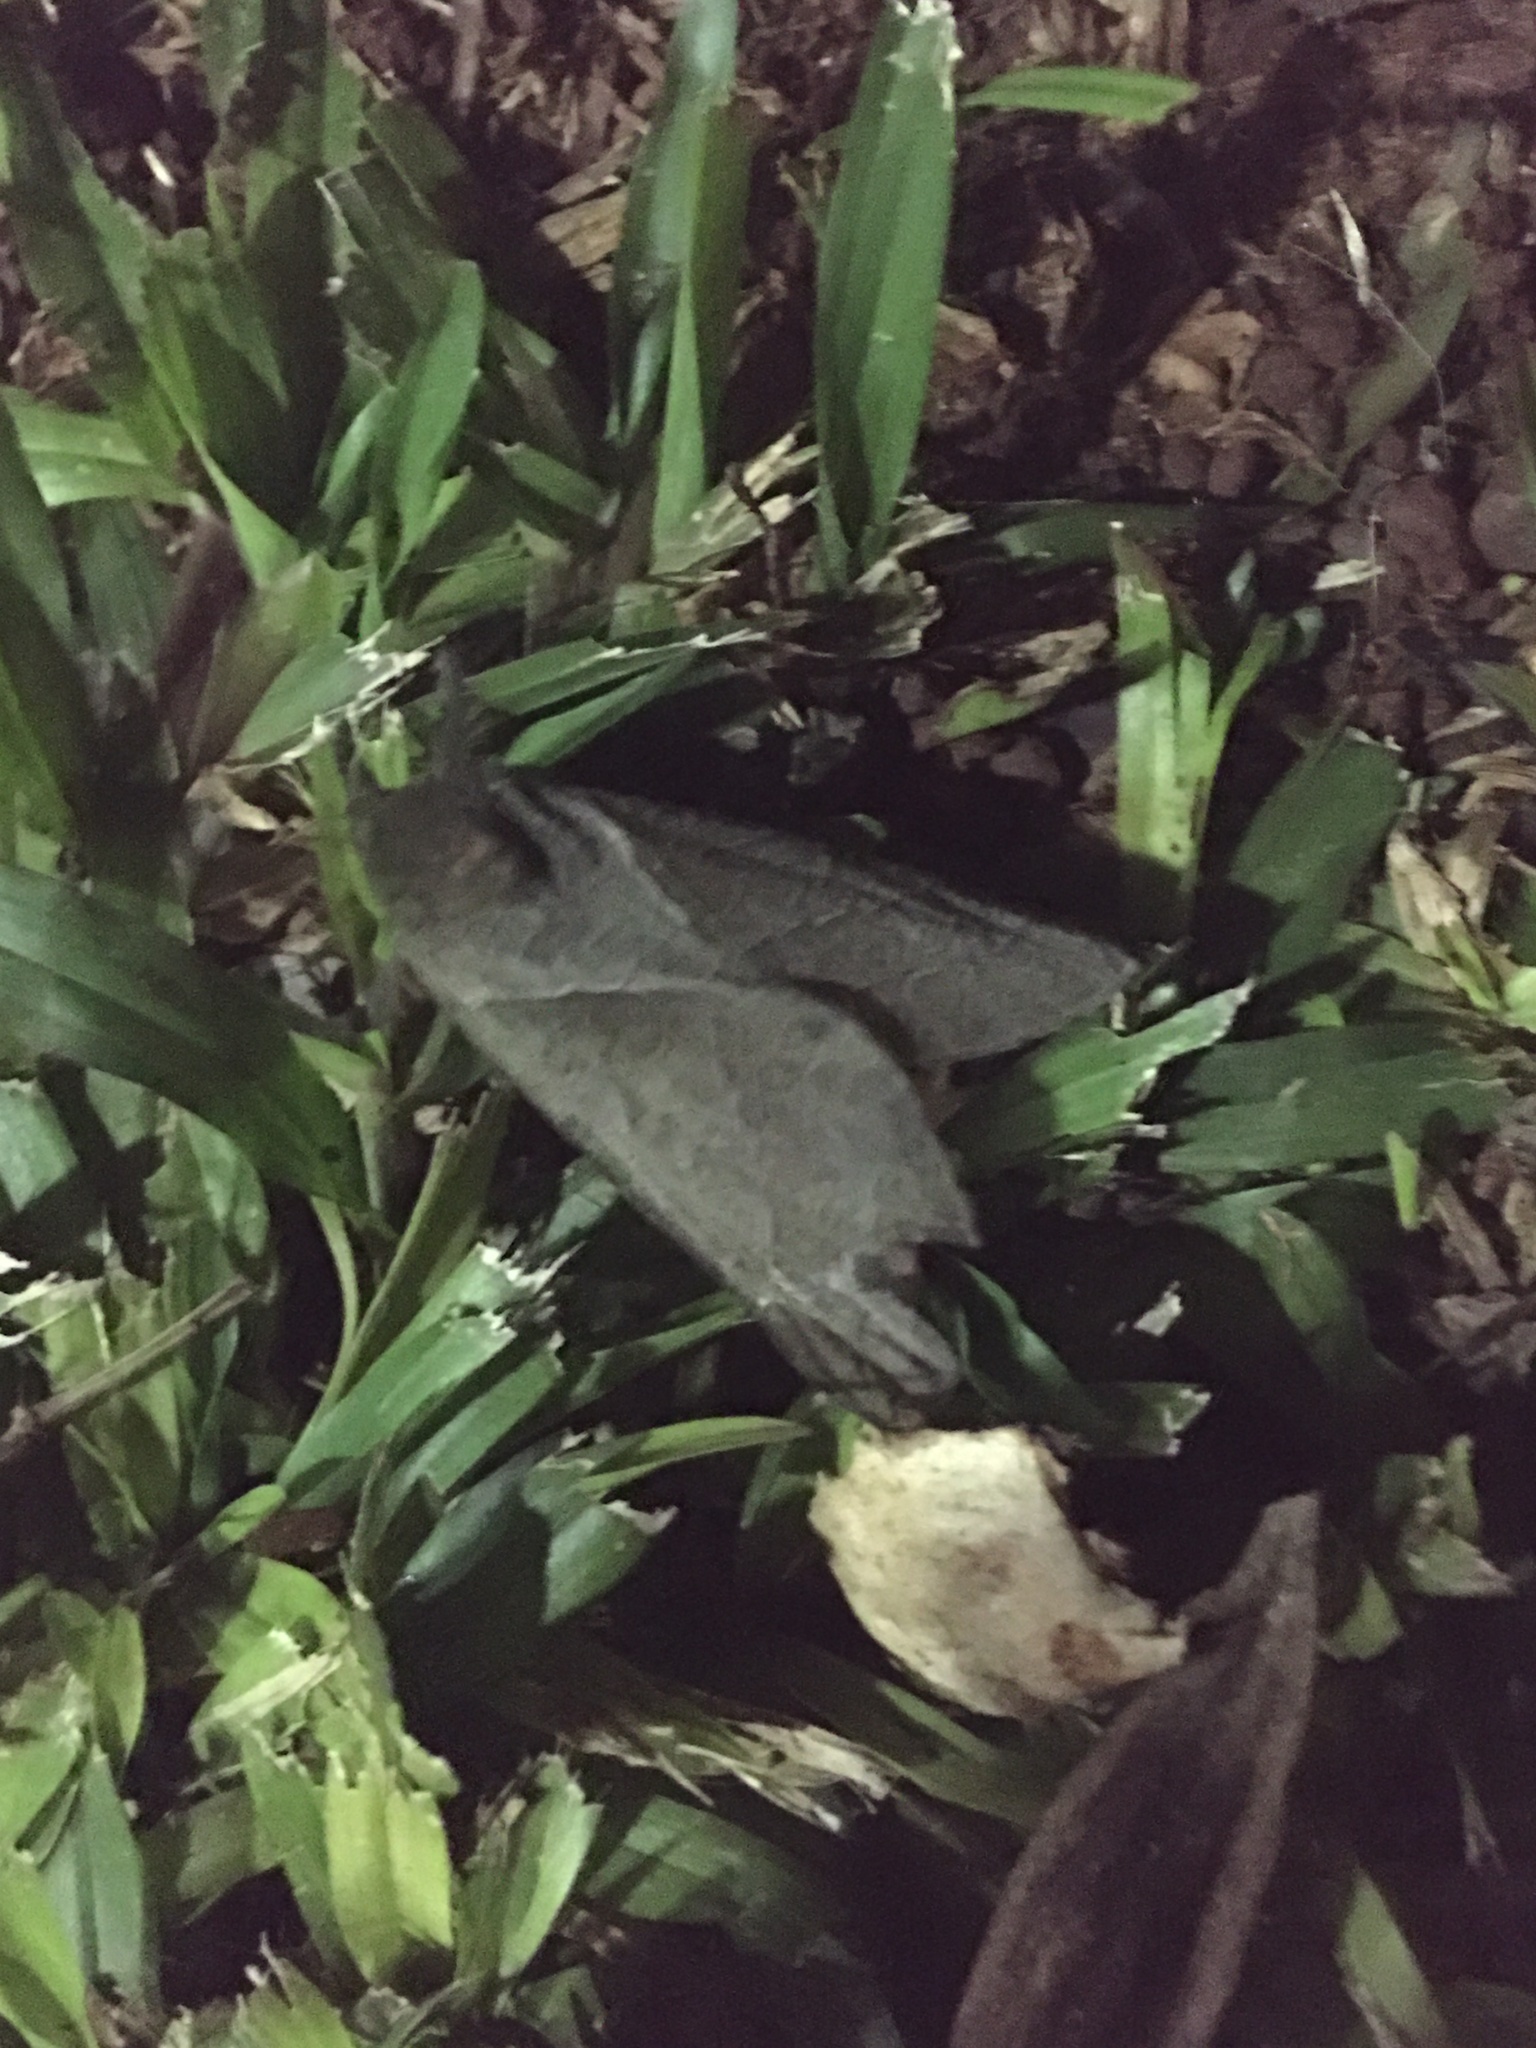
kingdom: Animalia
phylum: Arthropoda
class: Insecta
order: Lepidoptera
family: Hepialidae
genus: Trichophassus
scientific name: Trichophassus giganteus
